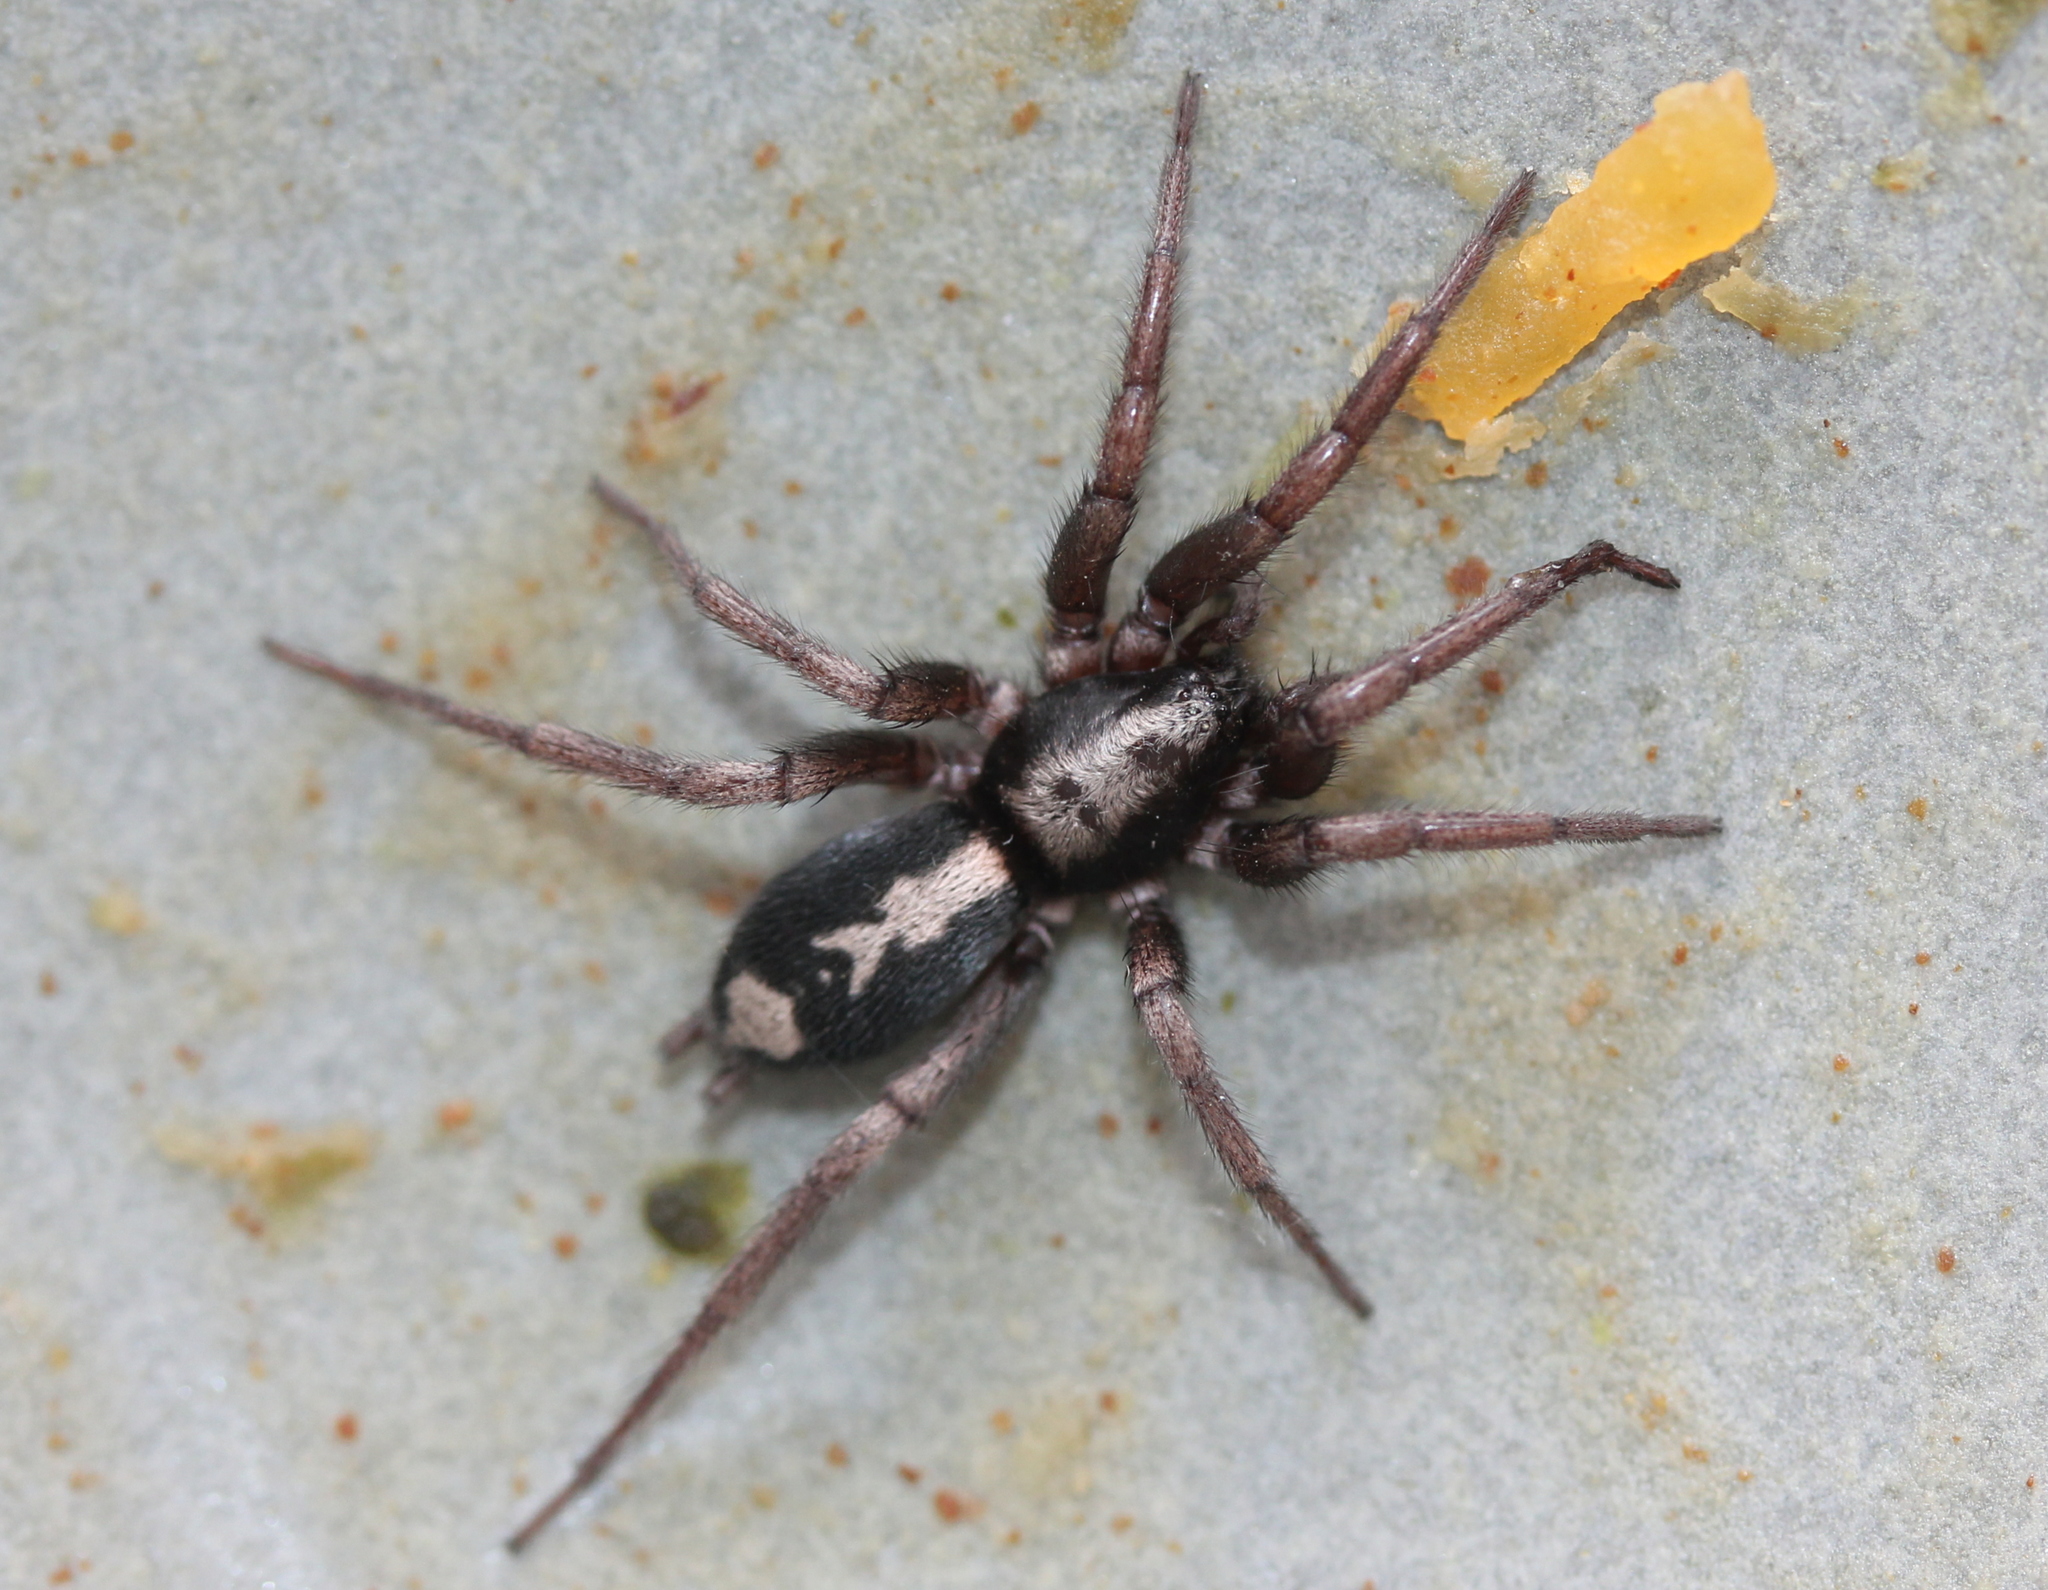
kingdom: Animalia
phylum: Arthropoda
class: Arachnida
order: Araneae
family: Gnaphosidae
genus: Herpyllus
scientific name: Herpyllus ecclesiasticus
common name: Eastern parson spider
